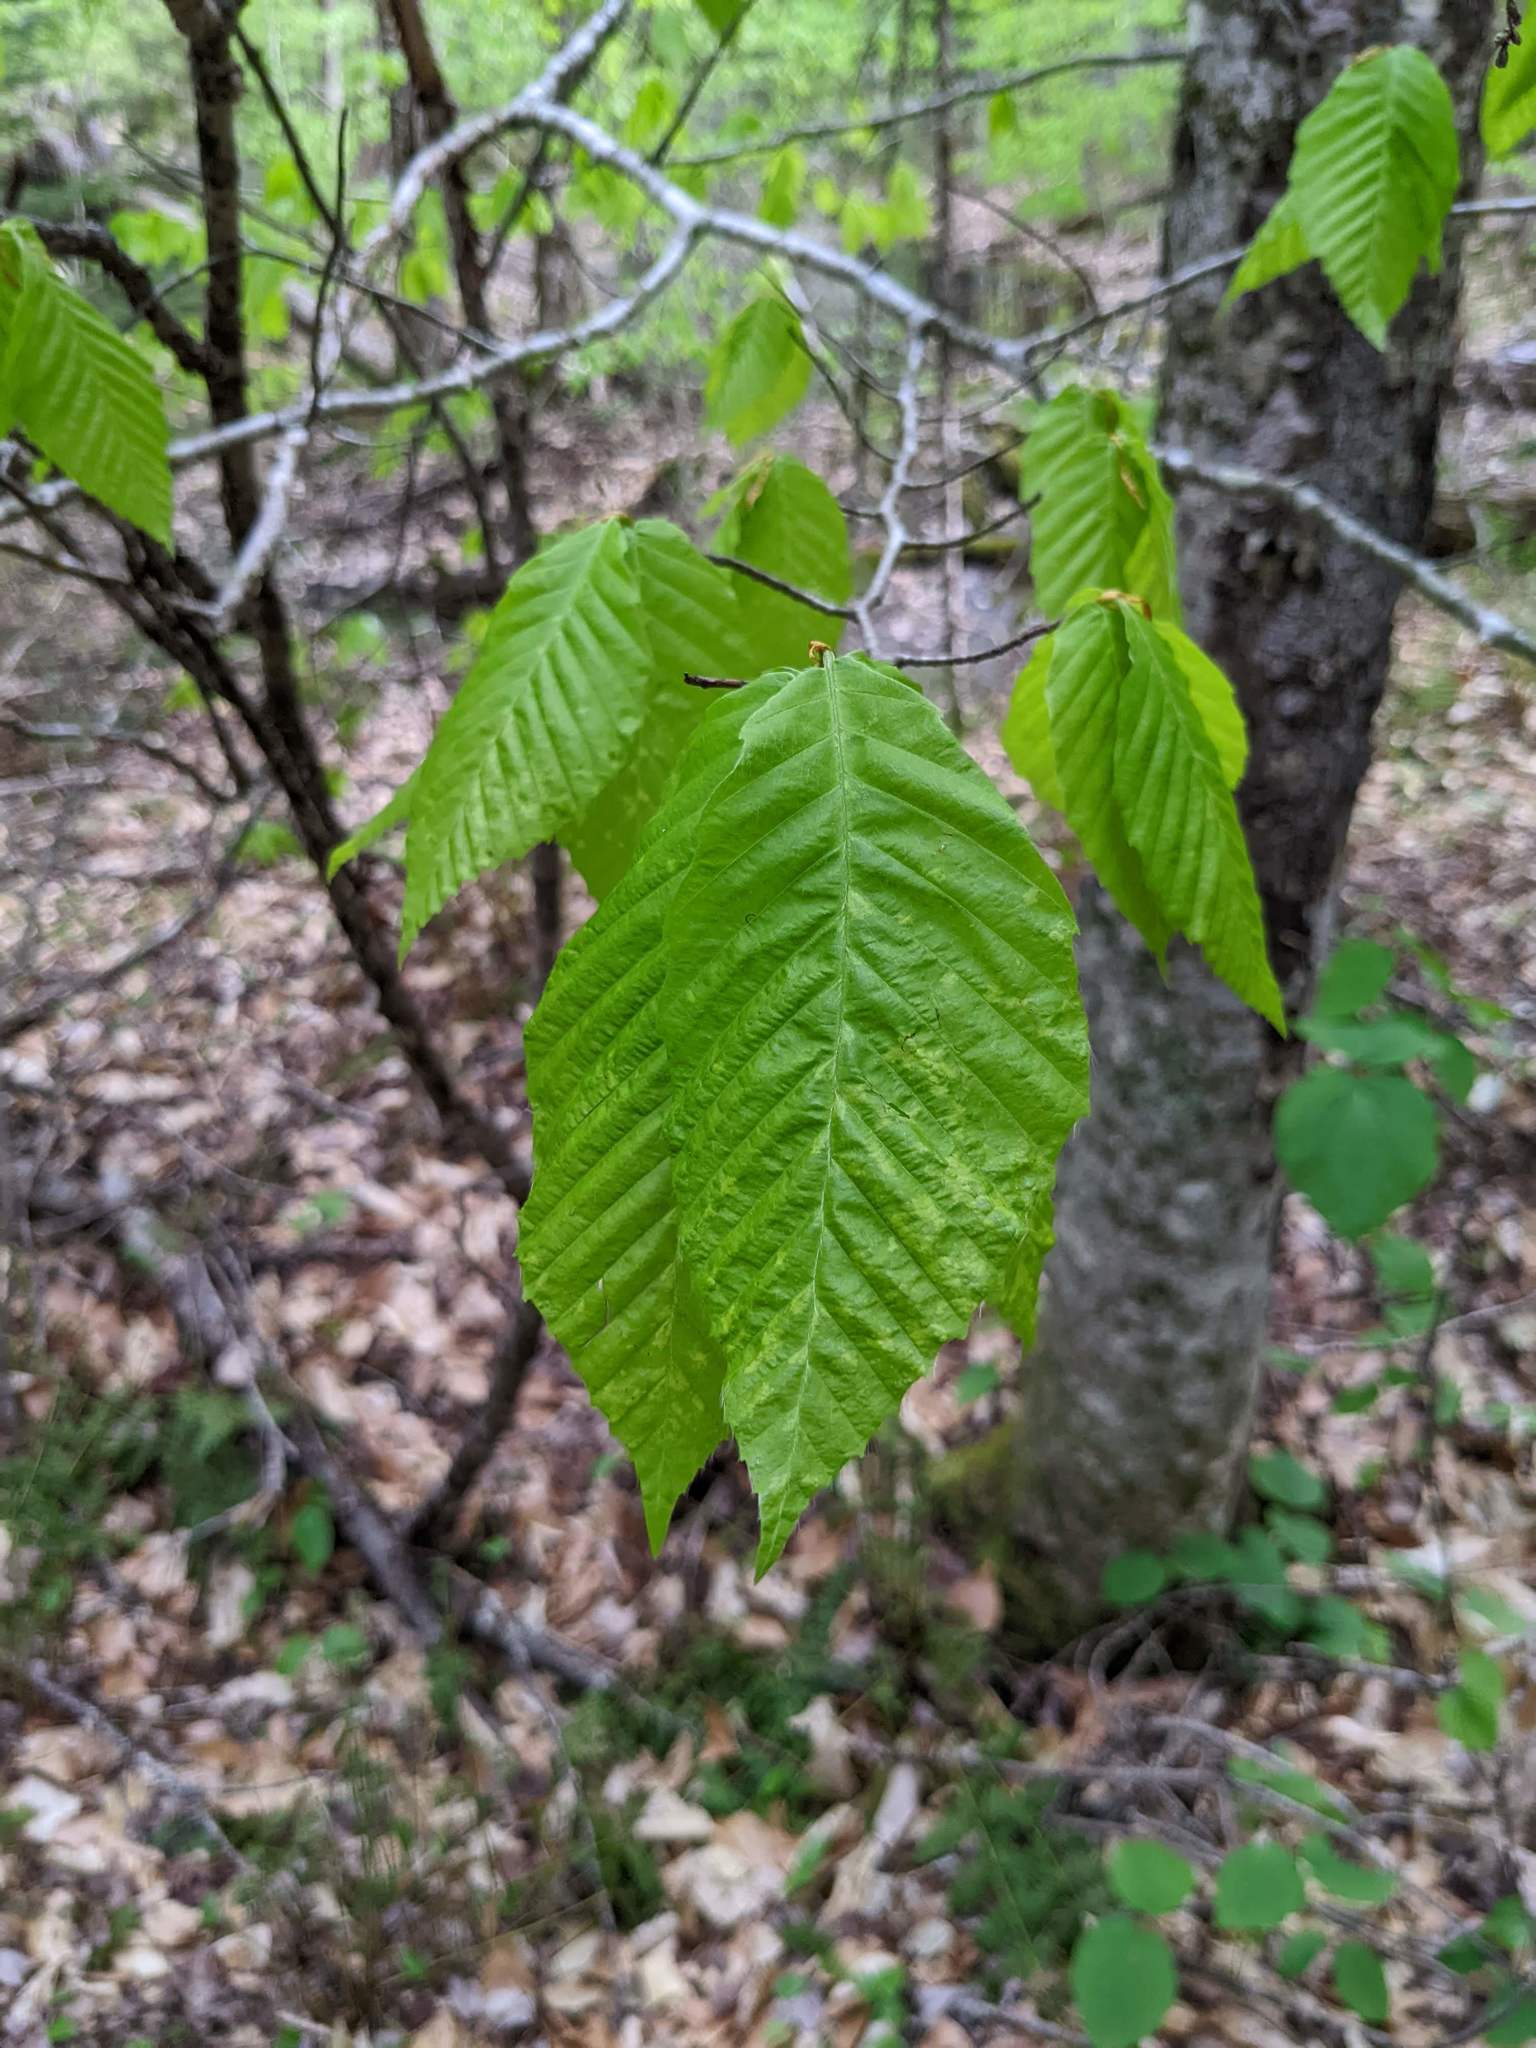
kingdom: Plantae
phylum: Tracheophyta
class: Magnoliopsida
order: Fagales
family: Fagaceae
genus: Fagus
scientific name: Fagus grandifolia
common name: American beech
